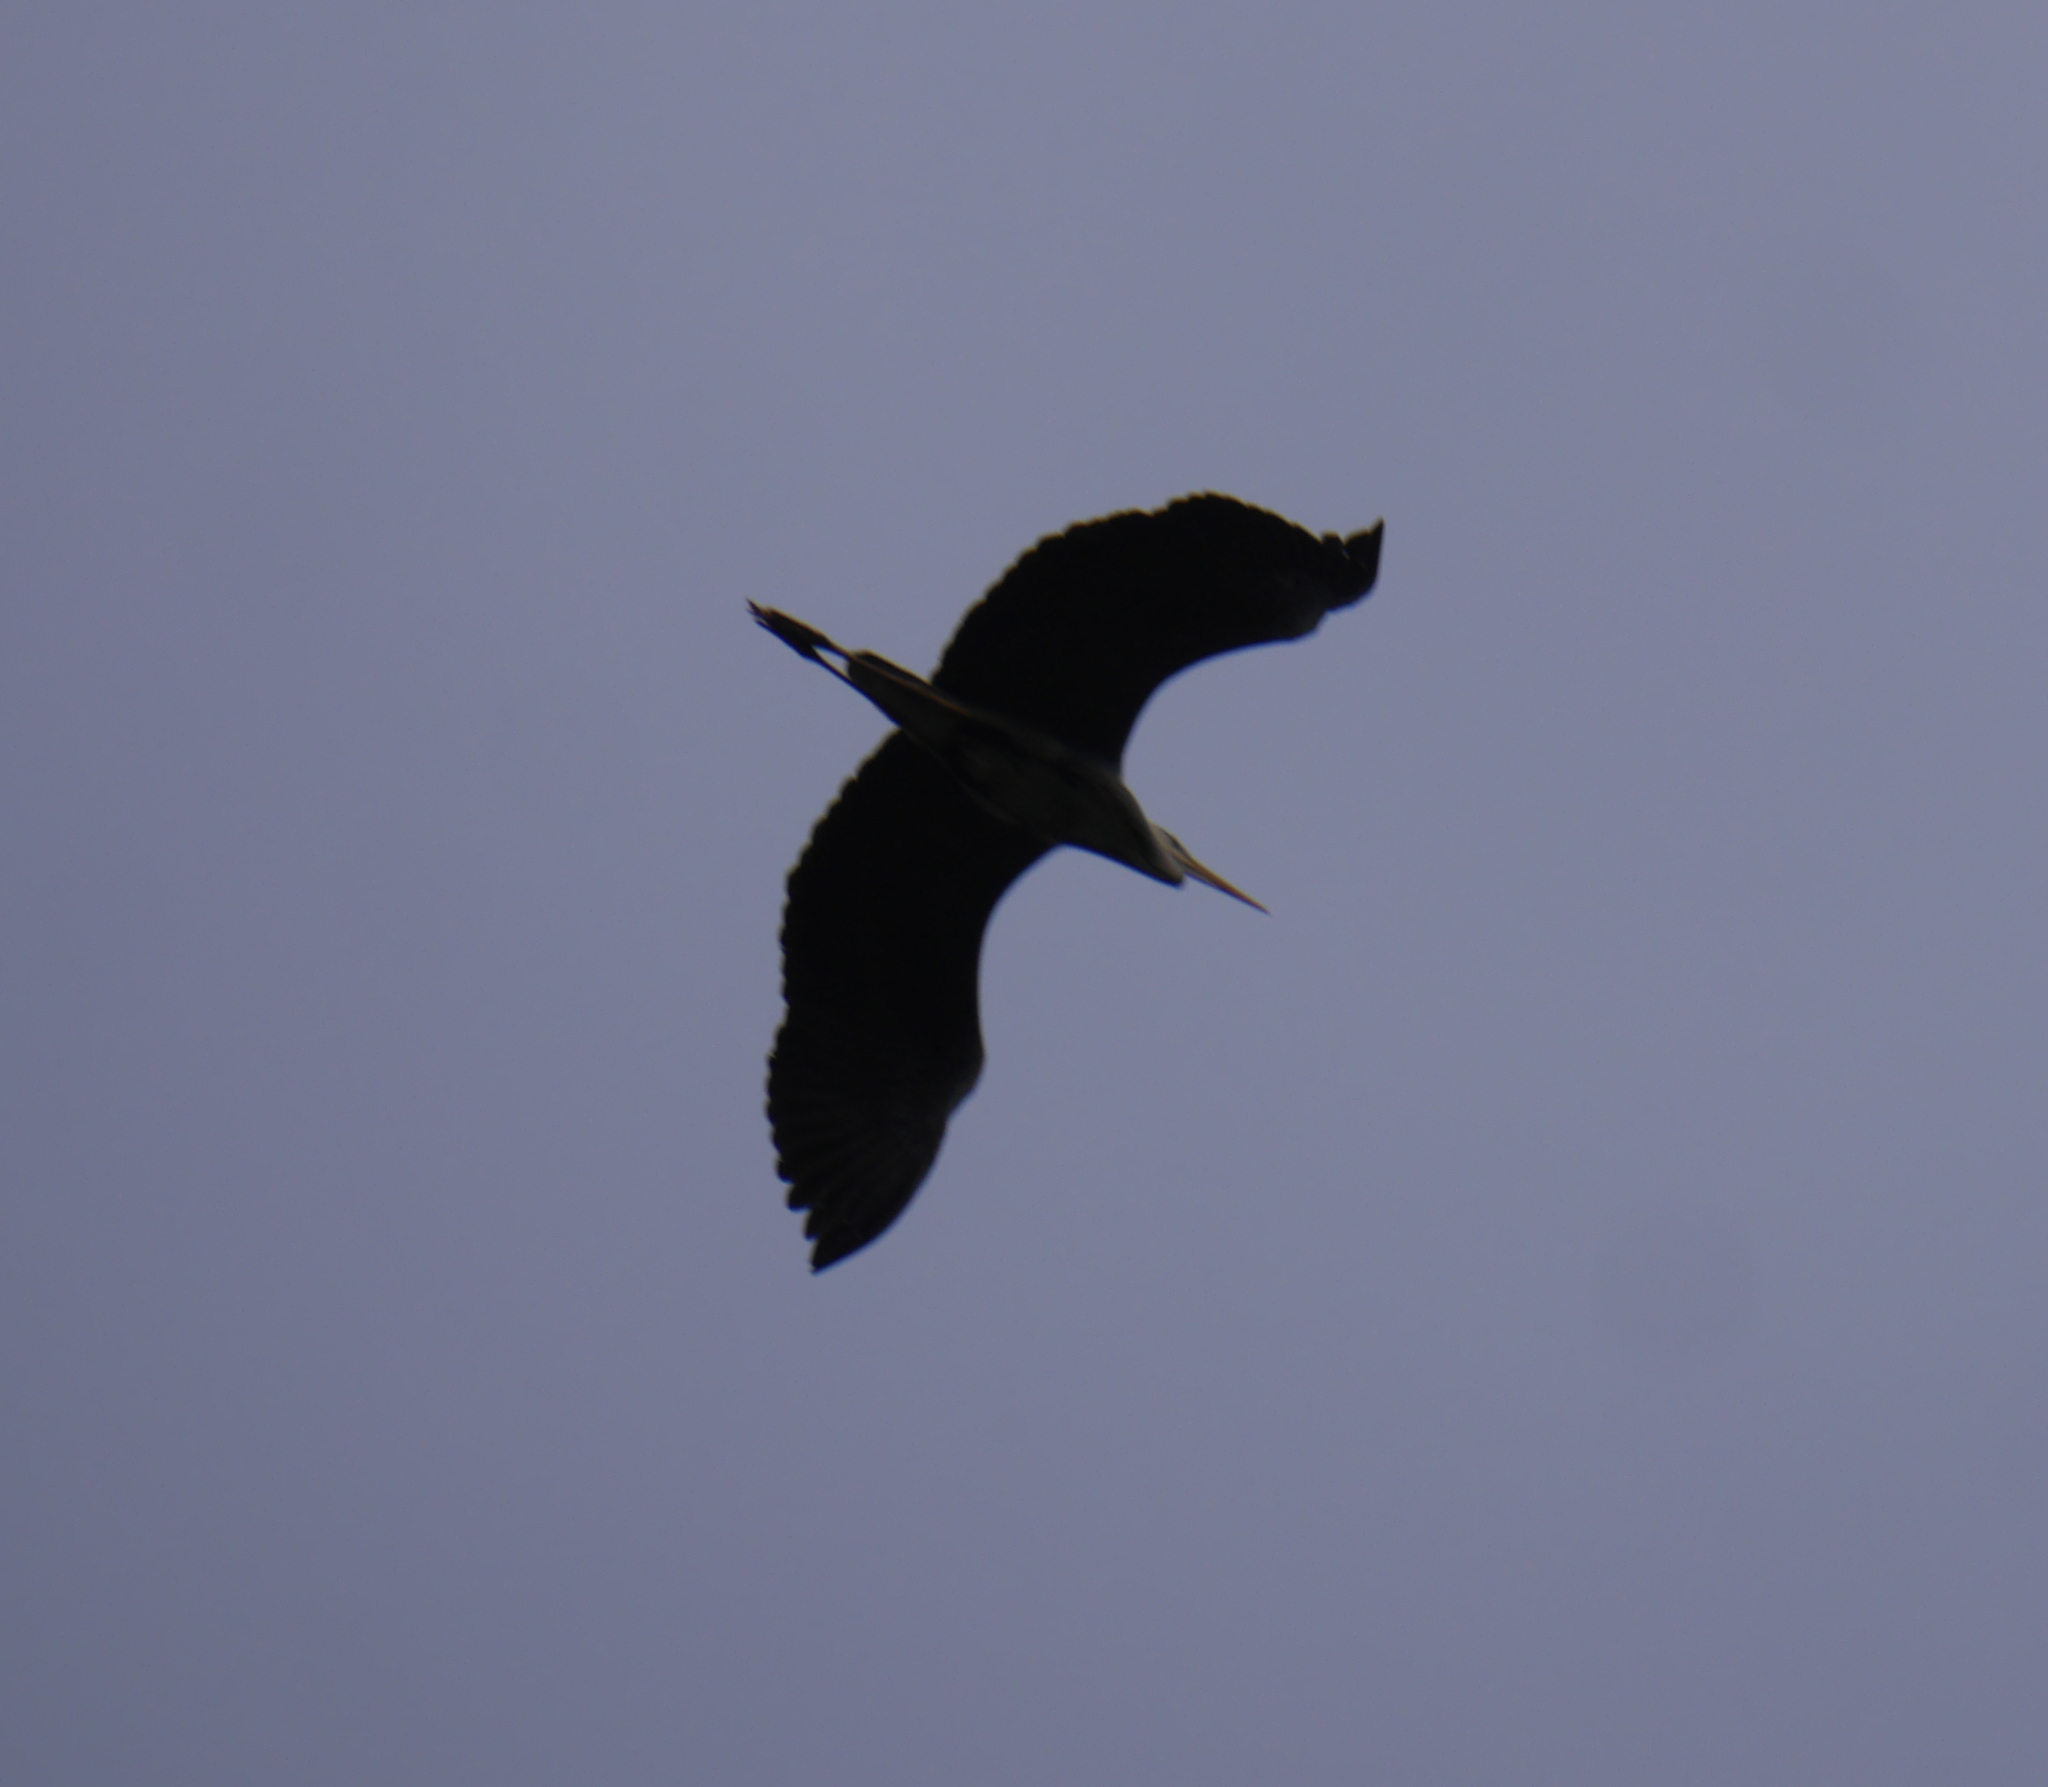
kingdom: Animalia
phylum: Chordata
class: Aves
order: Pelecaniformes
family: Ardeidae
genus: Ardea
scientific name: Ardea cinerea
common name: Grey heron
